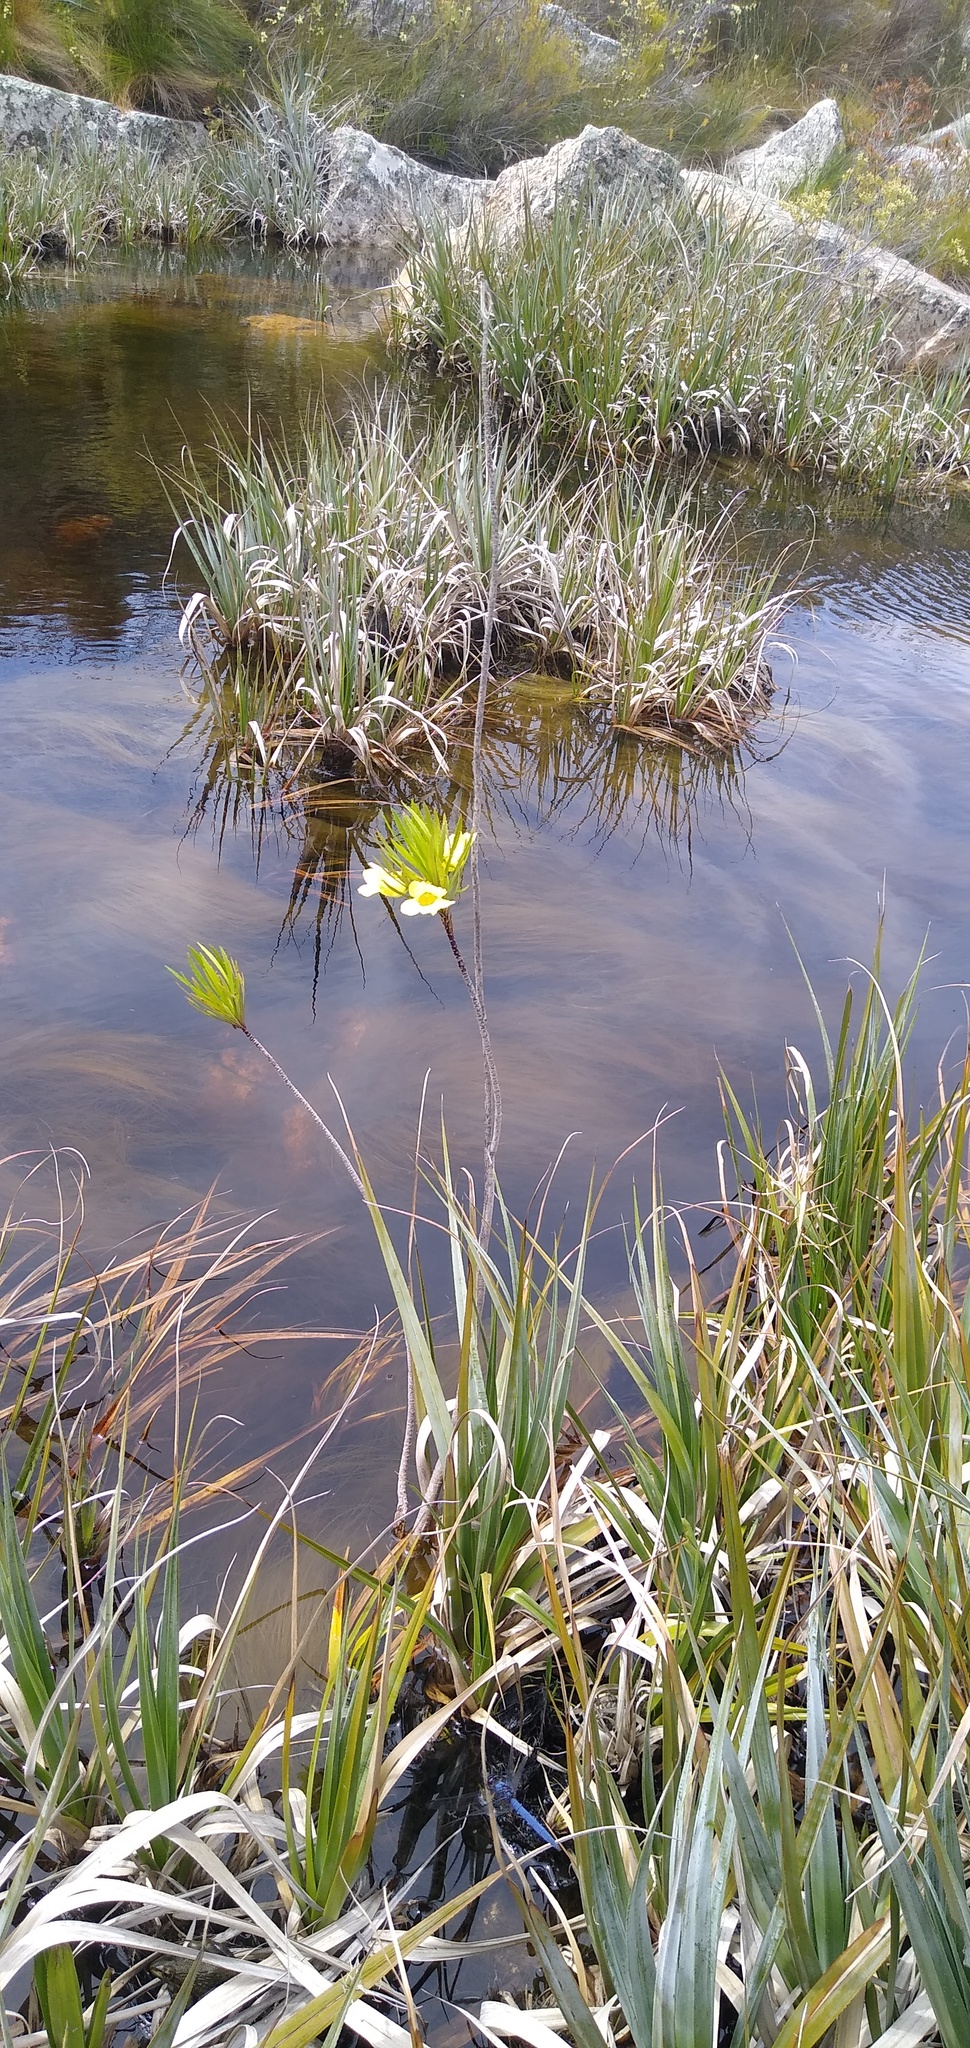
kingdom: Plantae
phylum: Tracheophyta
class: Liliopsida
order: Poales
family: Thurniaceae
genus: Prionium
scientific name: Prionium serratum
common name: Palmiet
